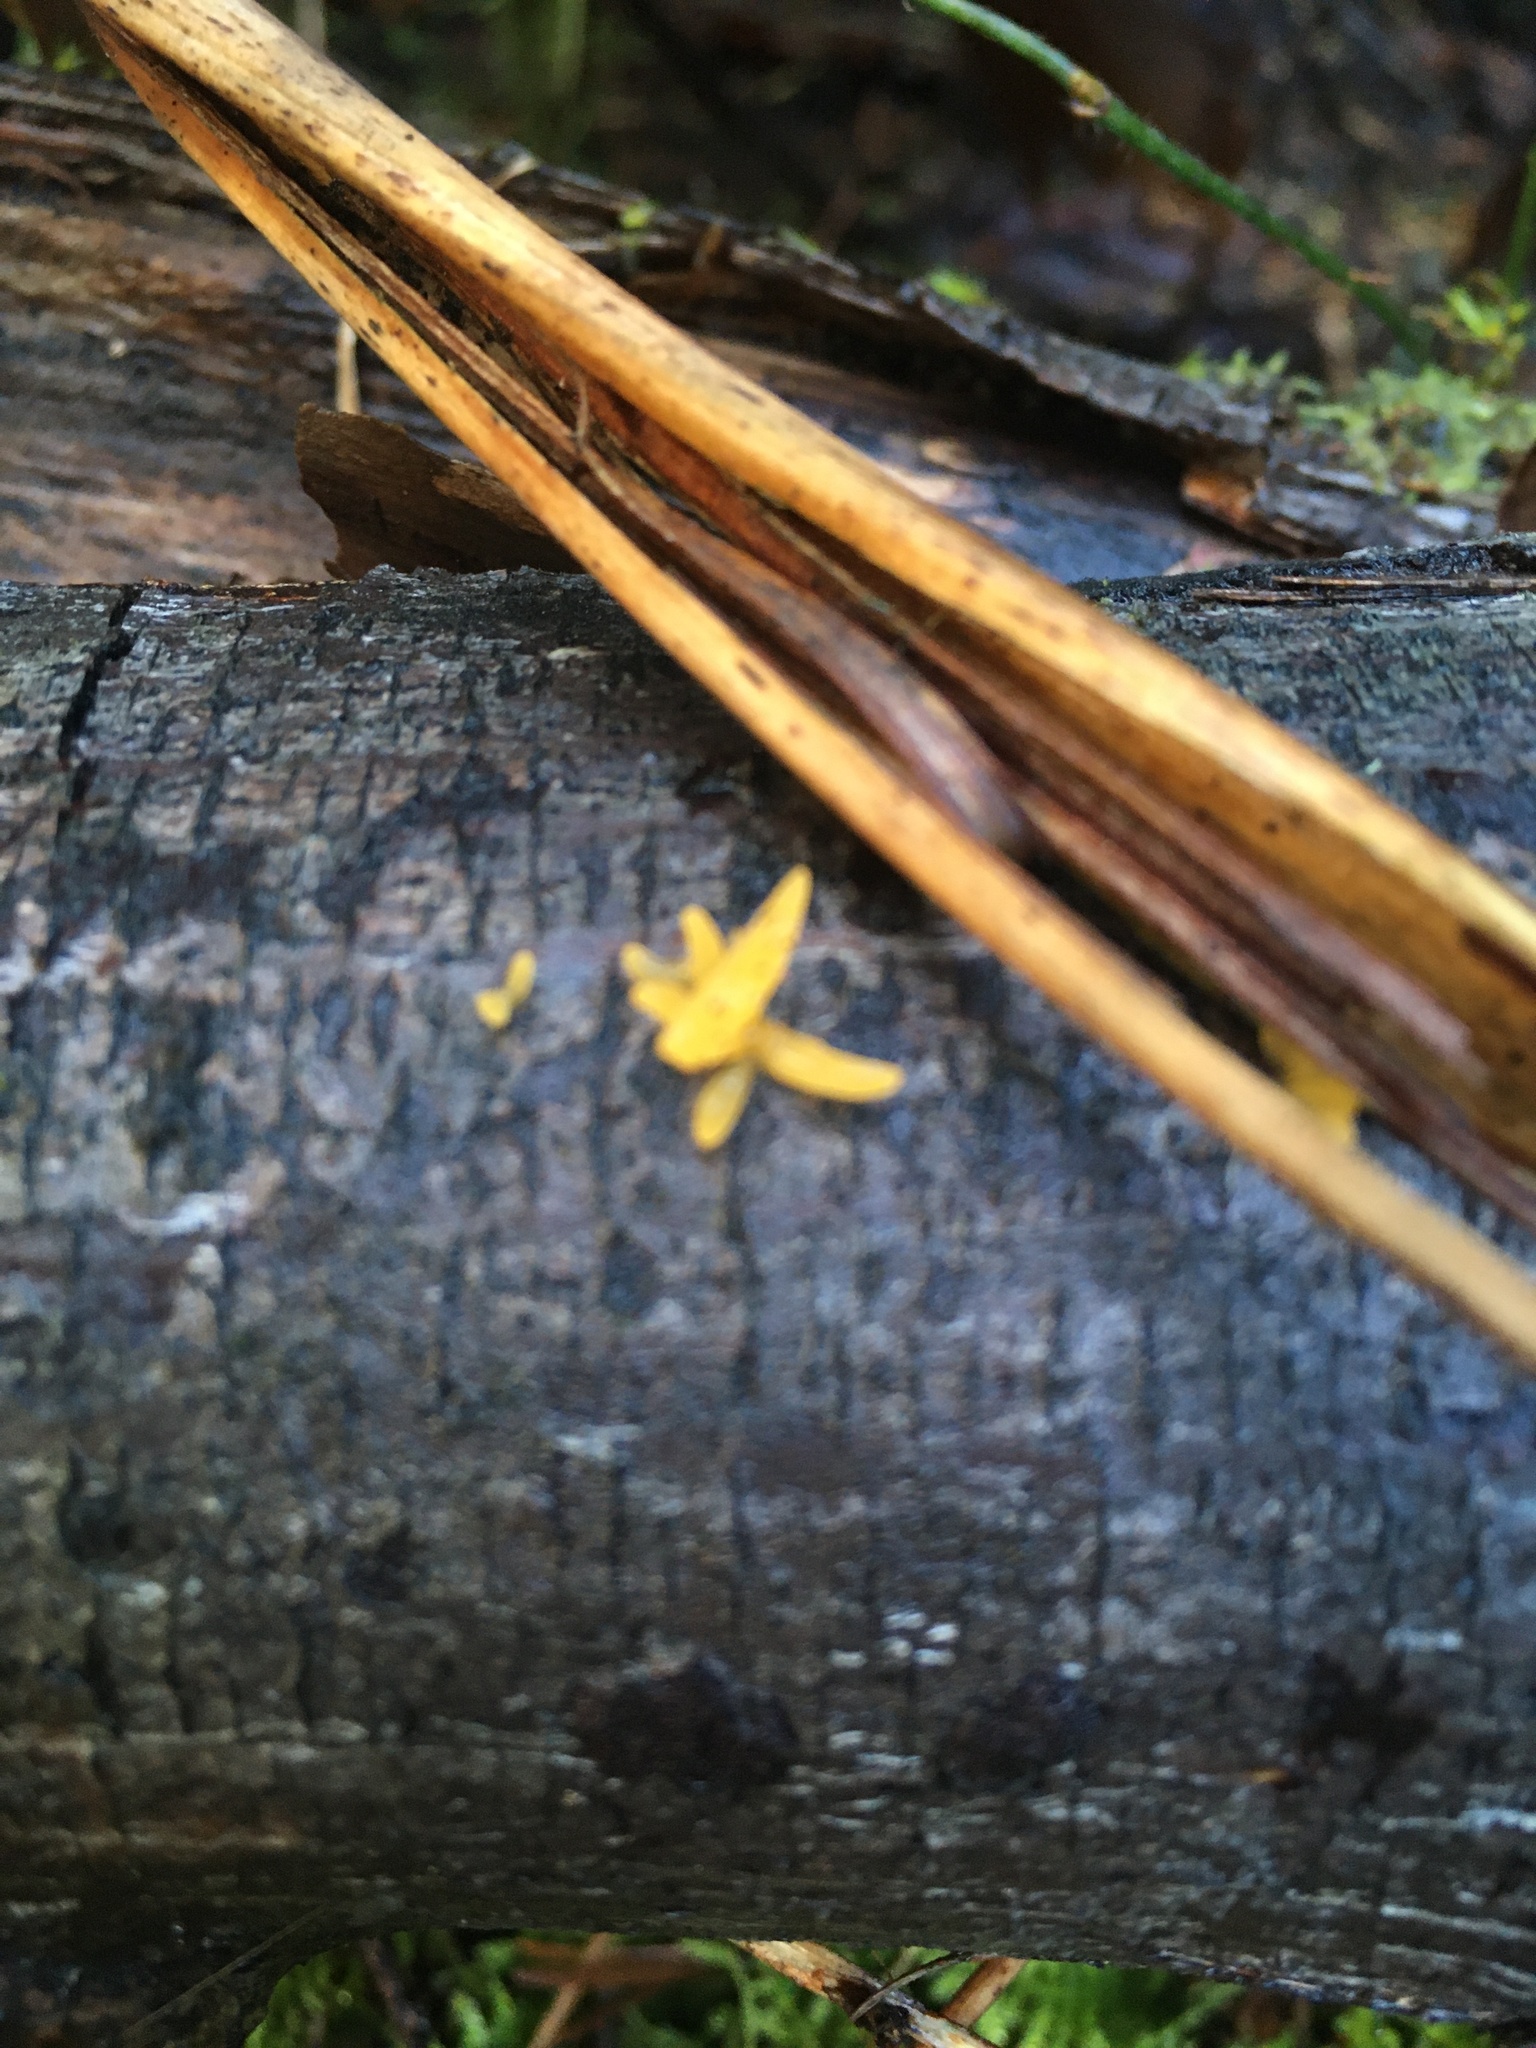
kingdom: Fungi
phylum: Basidiomycota
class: Dacrymycetes
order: Dacrymycetales
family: Dacrymycetaceae
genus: Calocera
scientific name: Calocera cornea
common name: Small stagshorn
